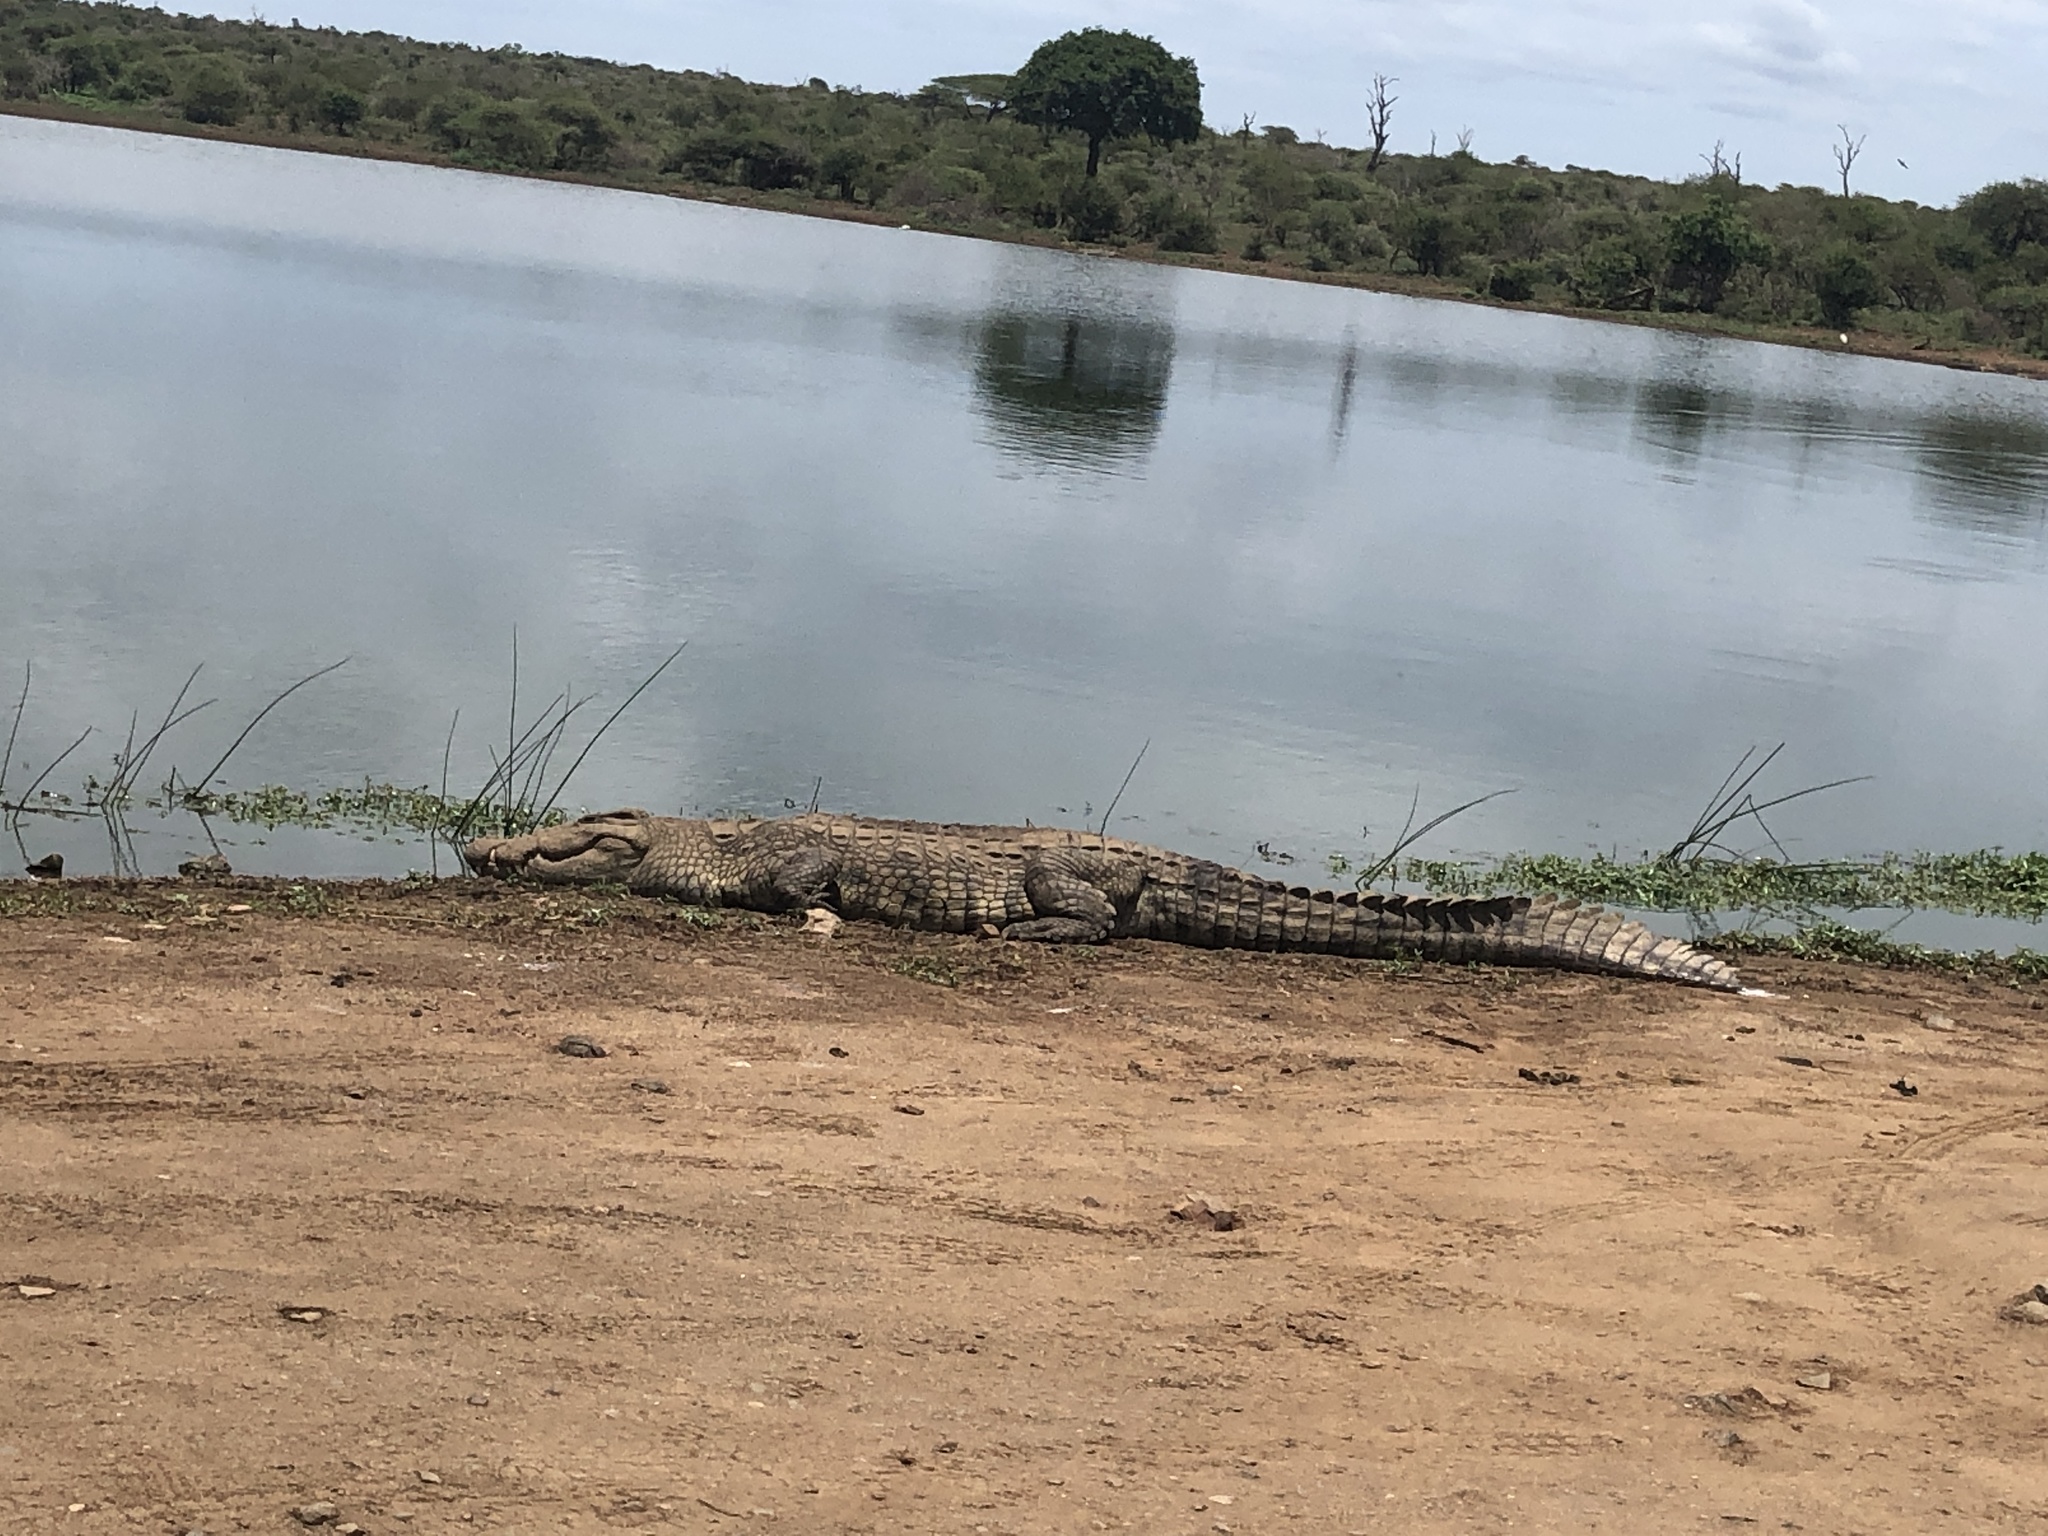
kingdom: Animalia
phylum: Chordata
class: Crocodylia
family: Crocodylidae
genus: Crocodylus
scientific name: Crocodylus niloticus
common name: Nile crocodile
